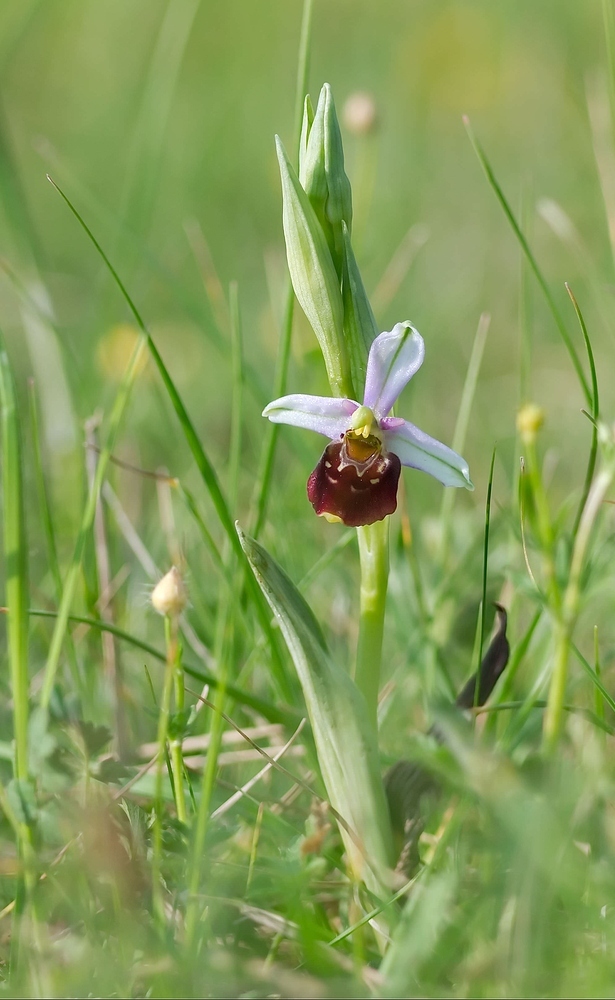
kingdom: Plantae
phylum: Tracheophyta
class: Liliopsida
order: Asparagales
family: Orchidaceae
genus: Ophrys
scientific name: Ophrys holosericea
